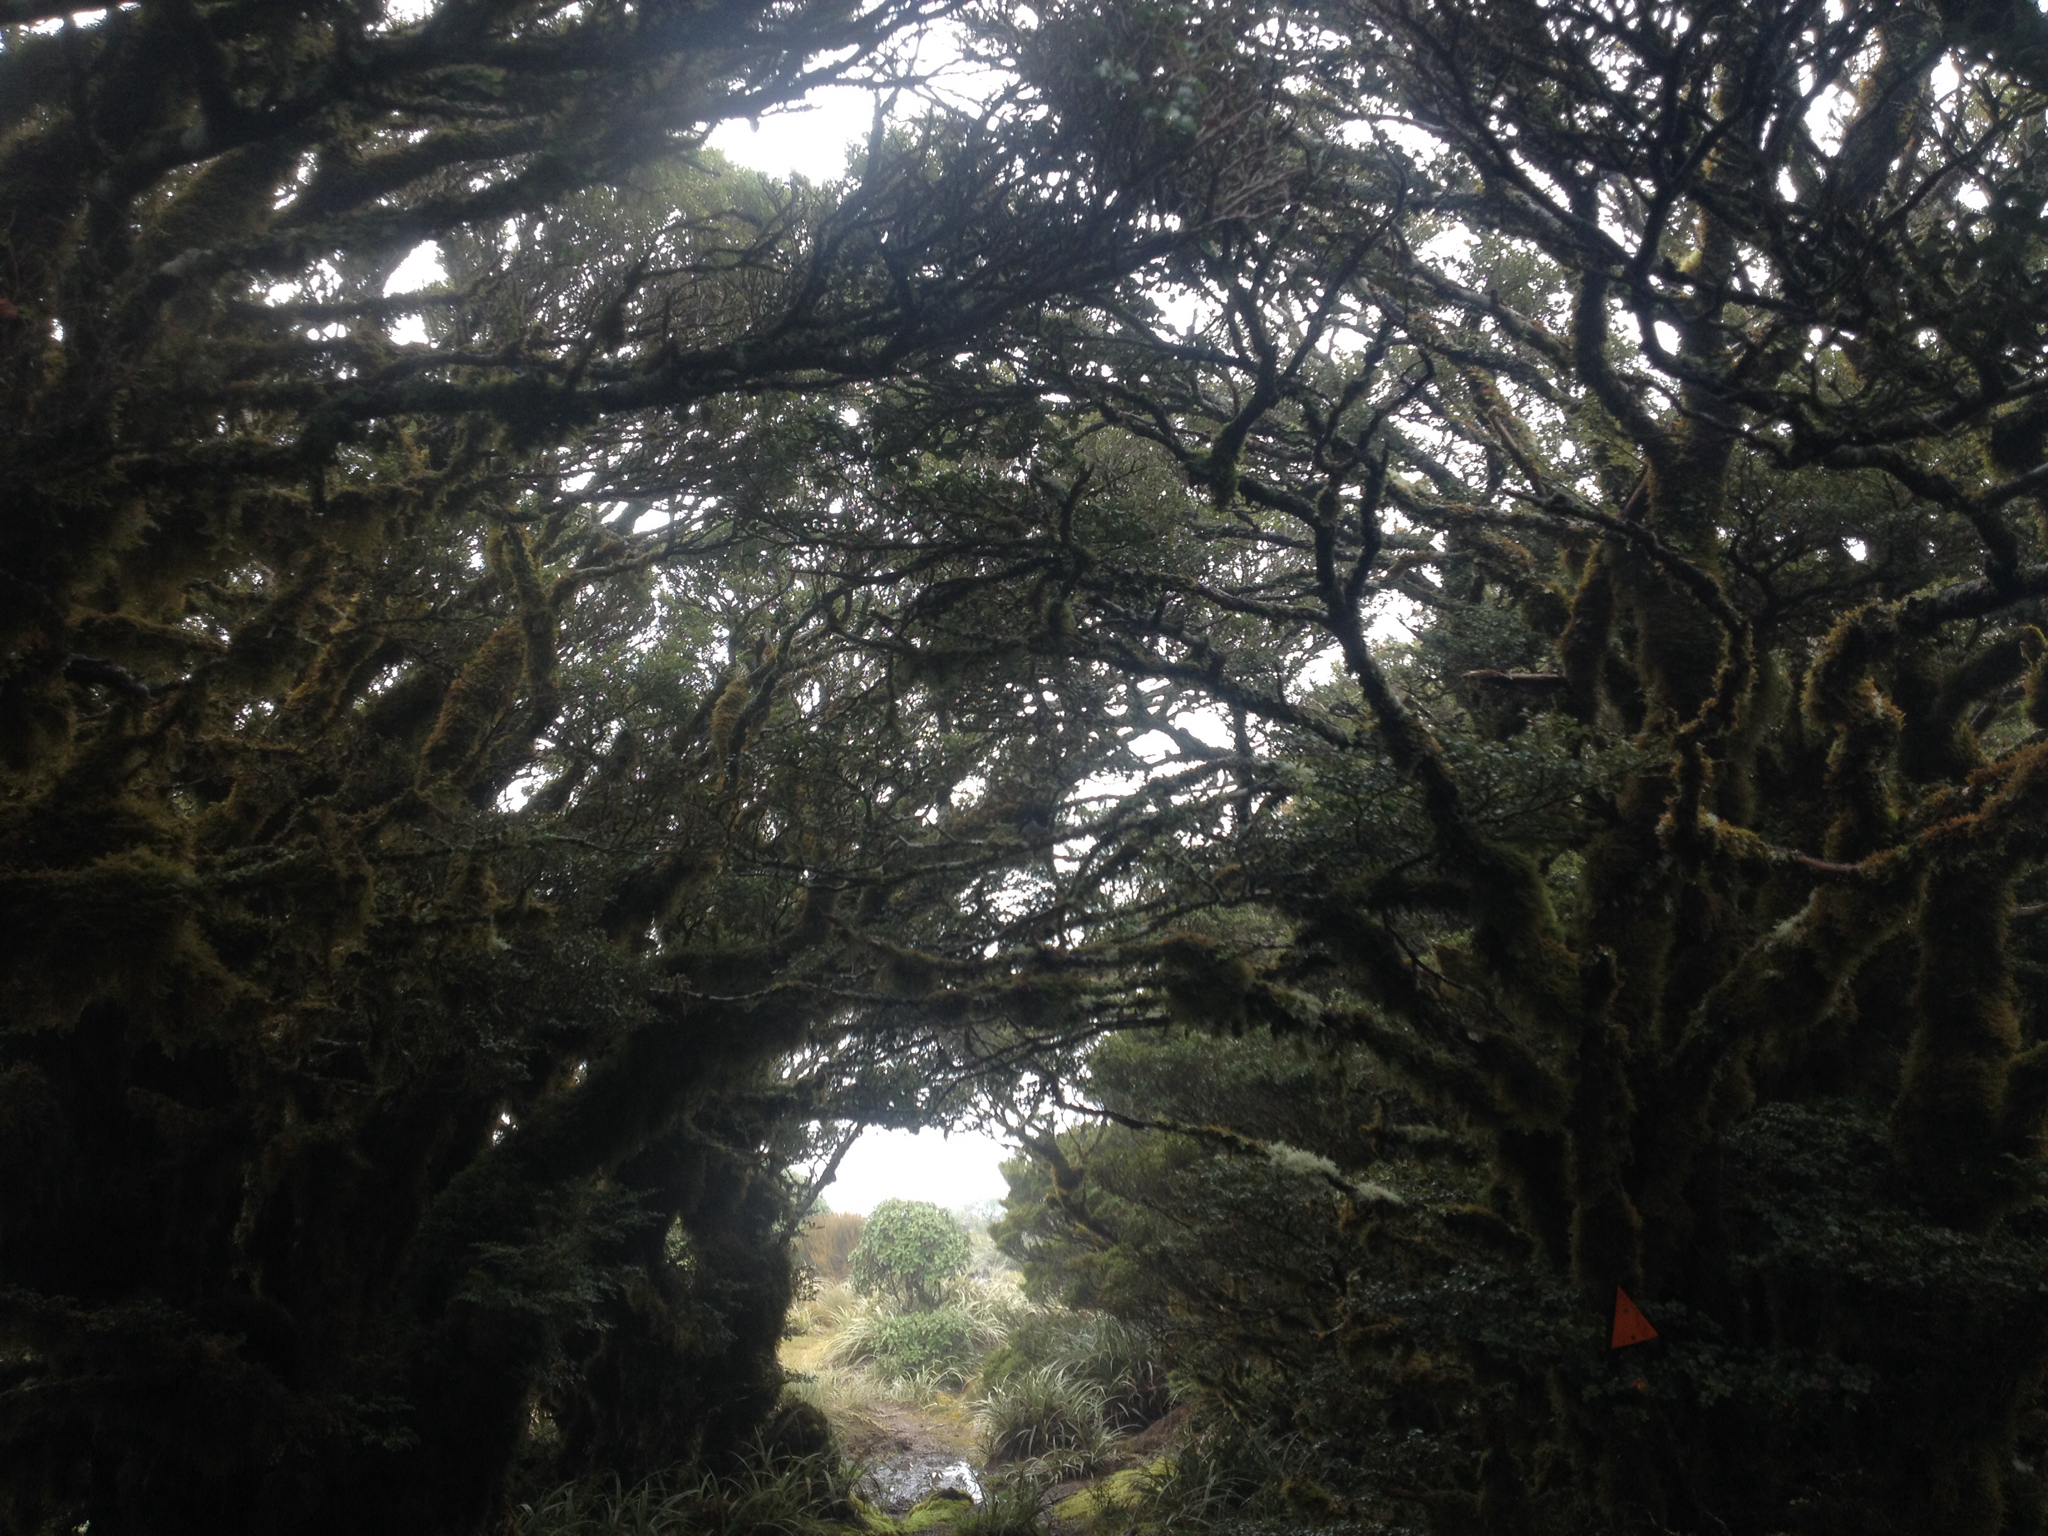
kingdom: Animalia
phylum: Chordata
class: Aves
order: Passeriformes
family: Petroicidae
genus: Petroica
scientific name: Petroica macrocephala
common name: Tomtit
